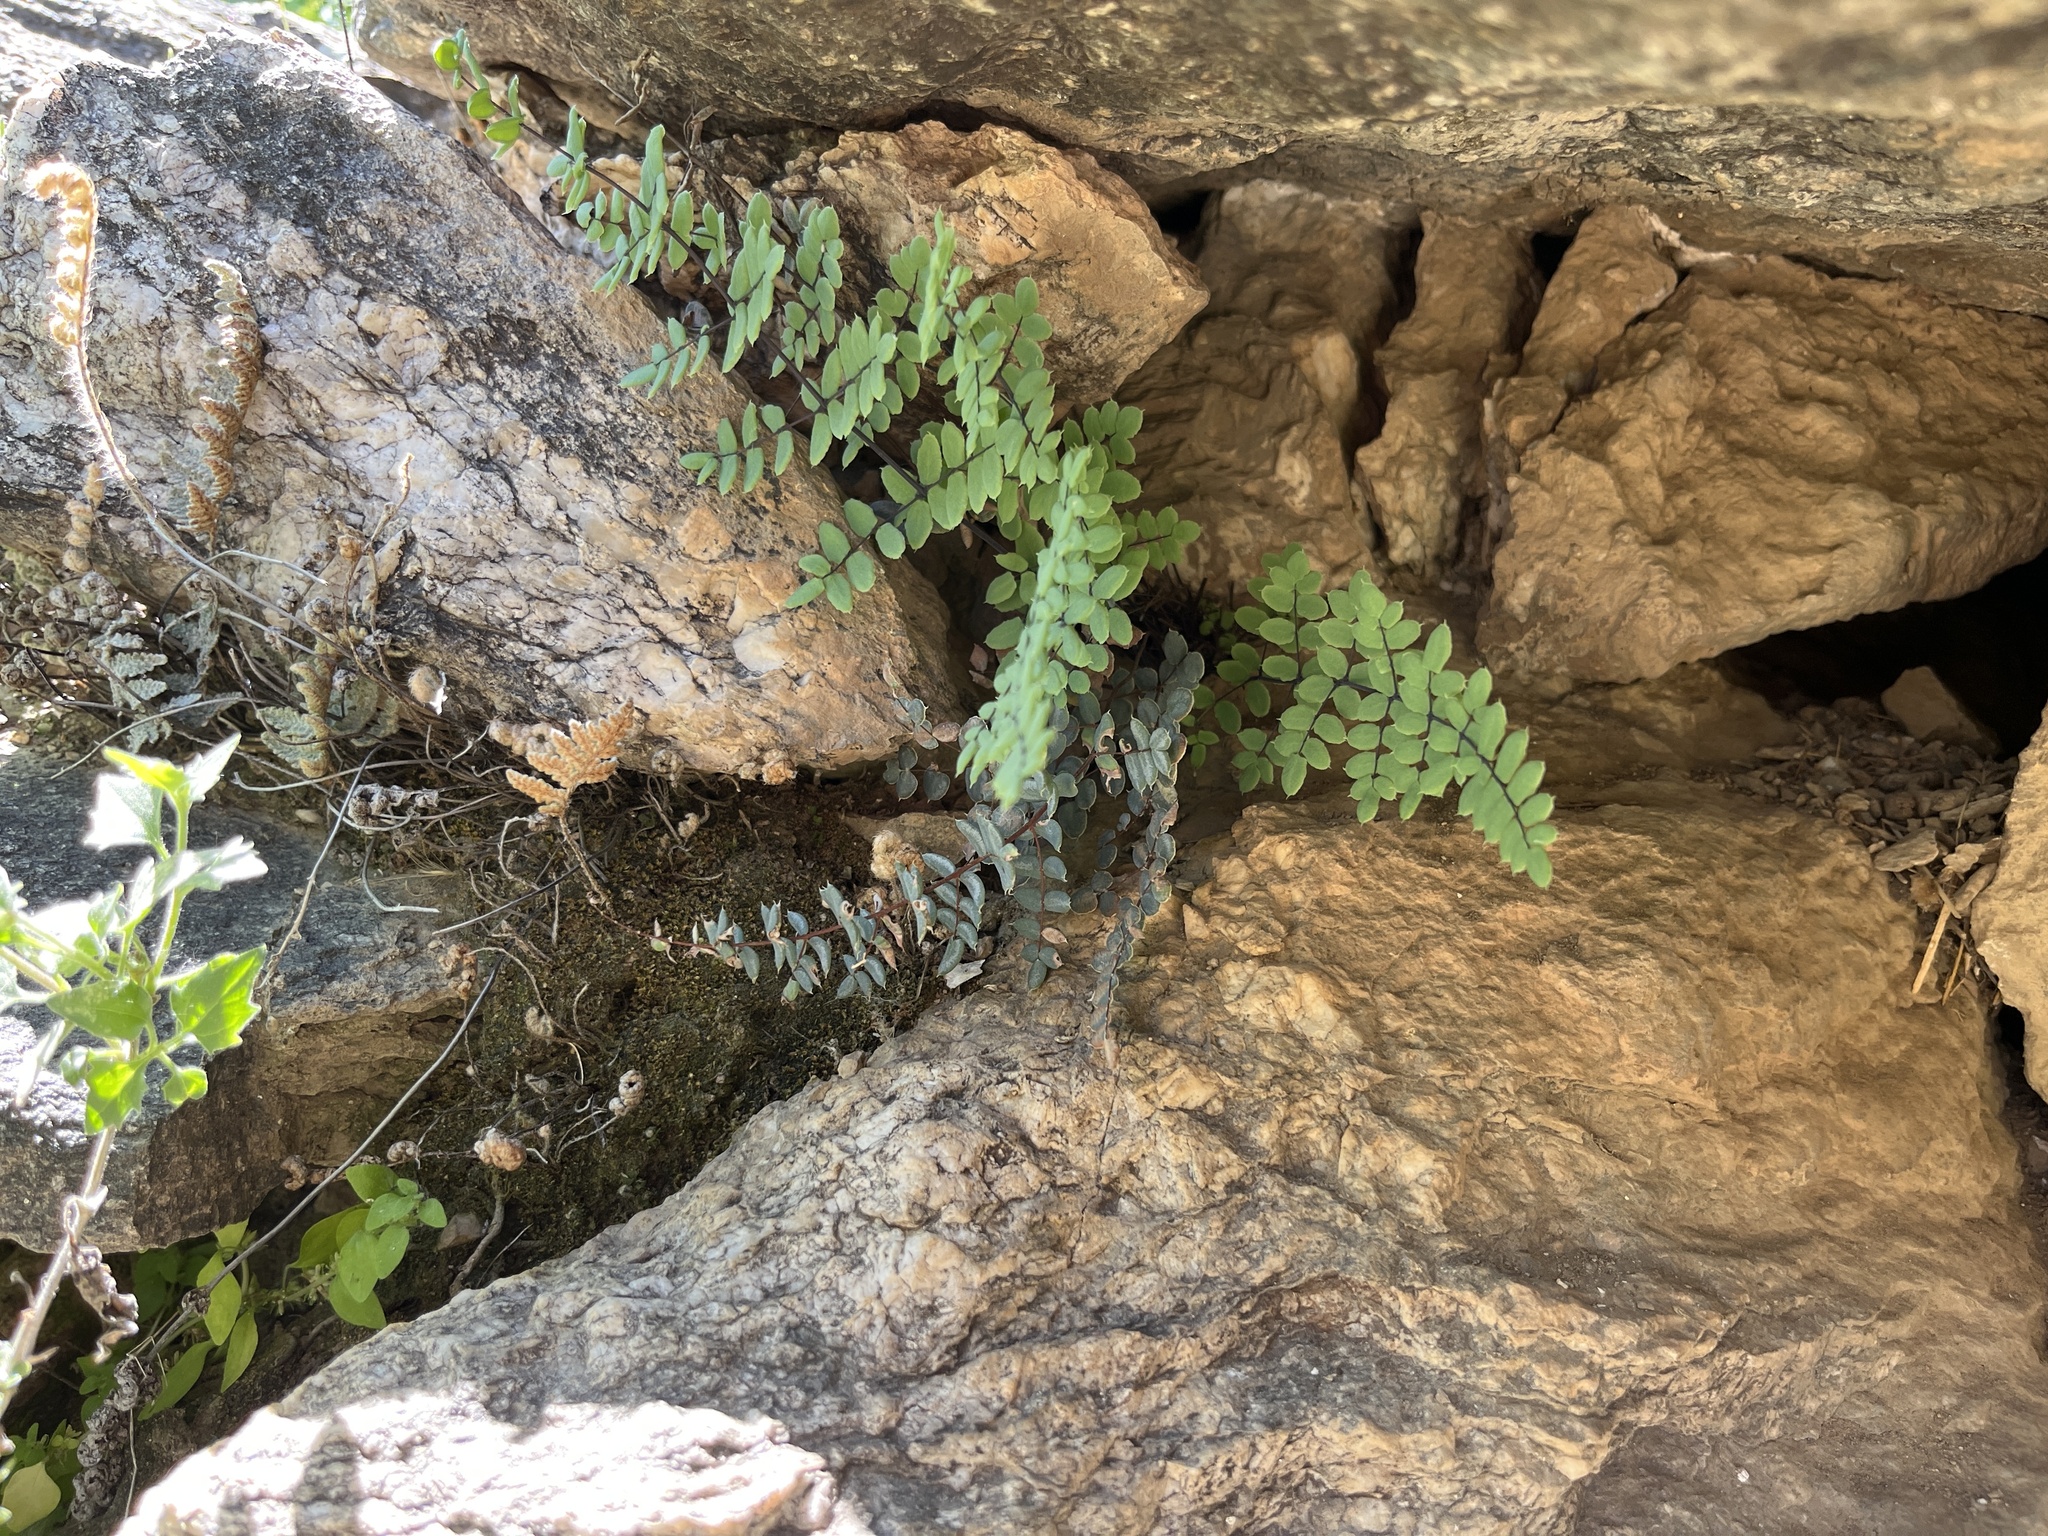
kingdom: Plantae
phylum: Tracheophyta
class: Polypodiopsida
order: Polypodiales
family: Pteridaceae
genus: Pellaea
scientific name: Pellaea truncata
